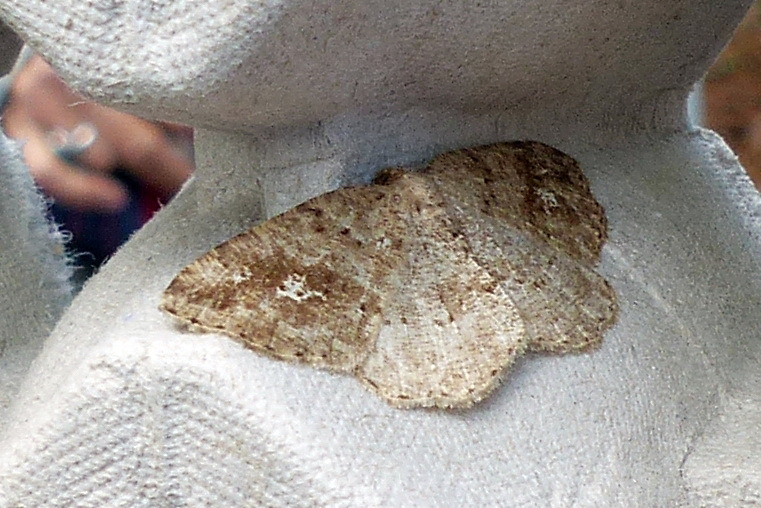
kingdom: Animalia
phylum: Arthropoda
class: Insecta
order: Lepidoptera
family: Geometridae
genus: Homochlodes
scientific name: Homochlodes fritillaria
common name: Pale homochlodes
